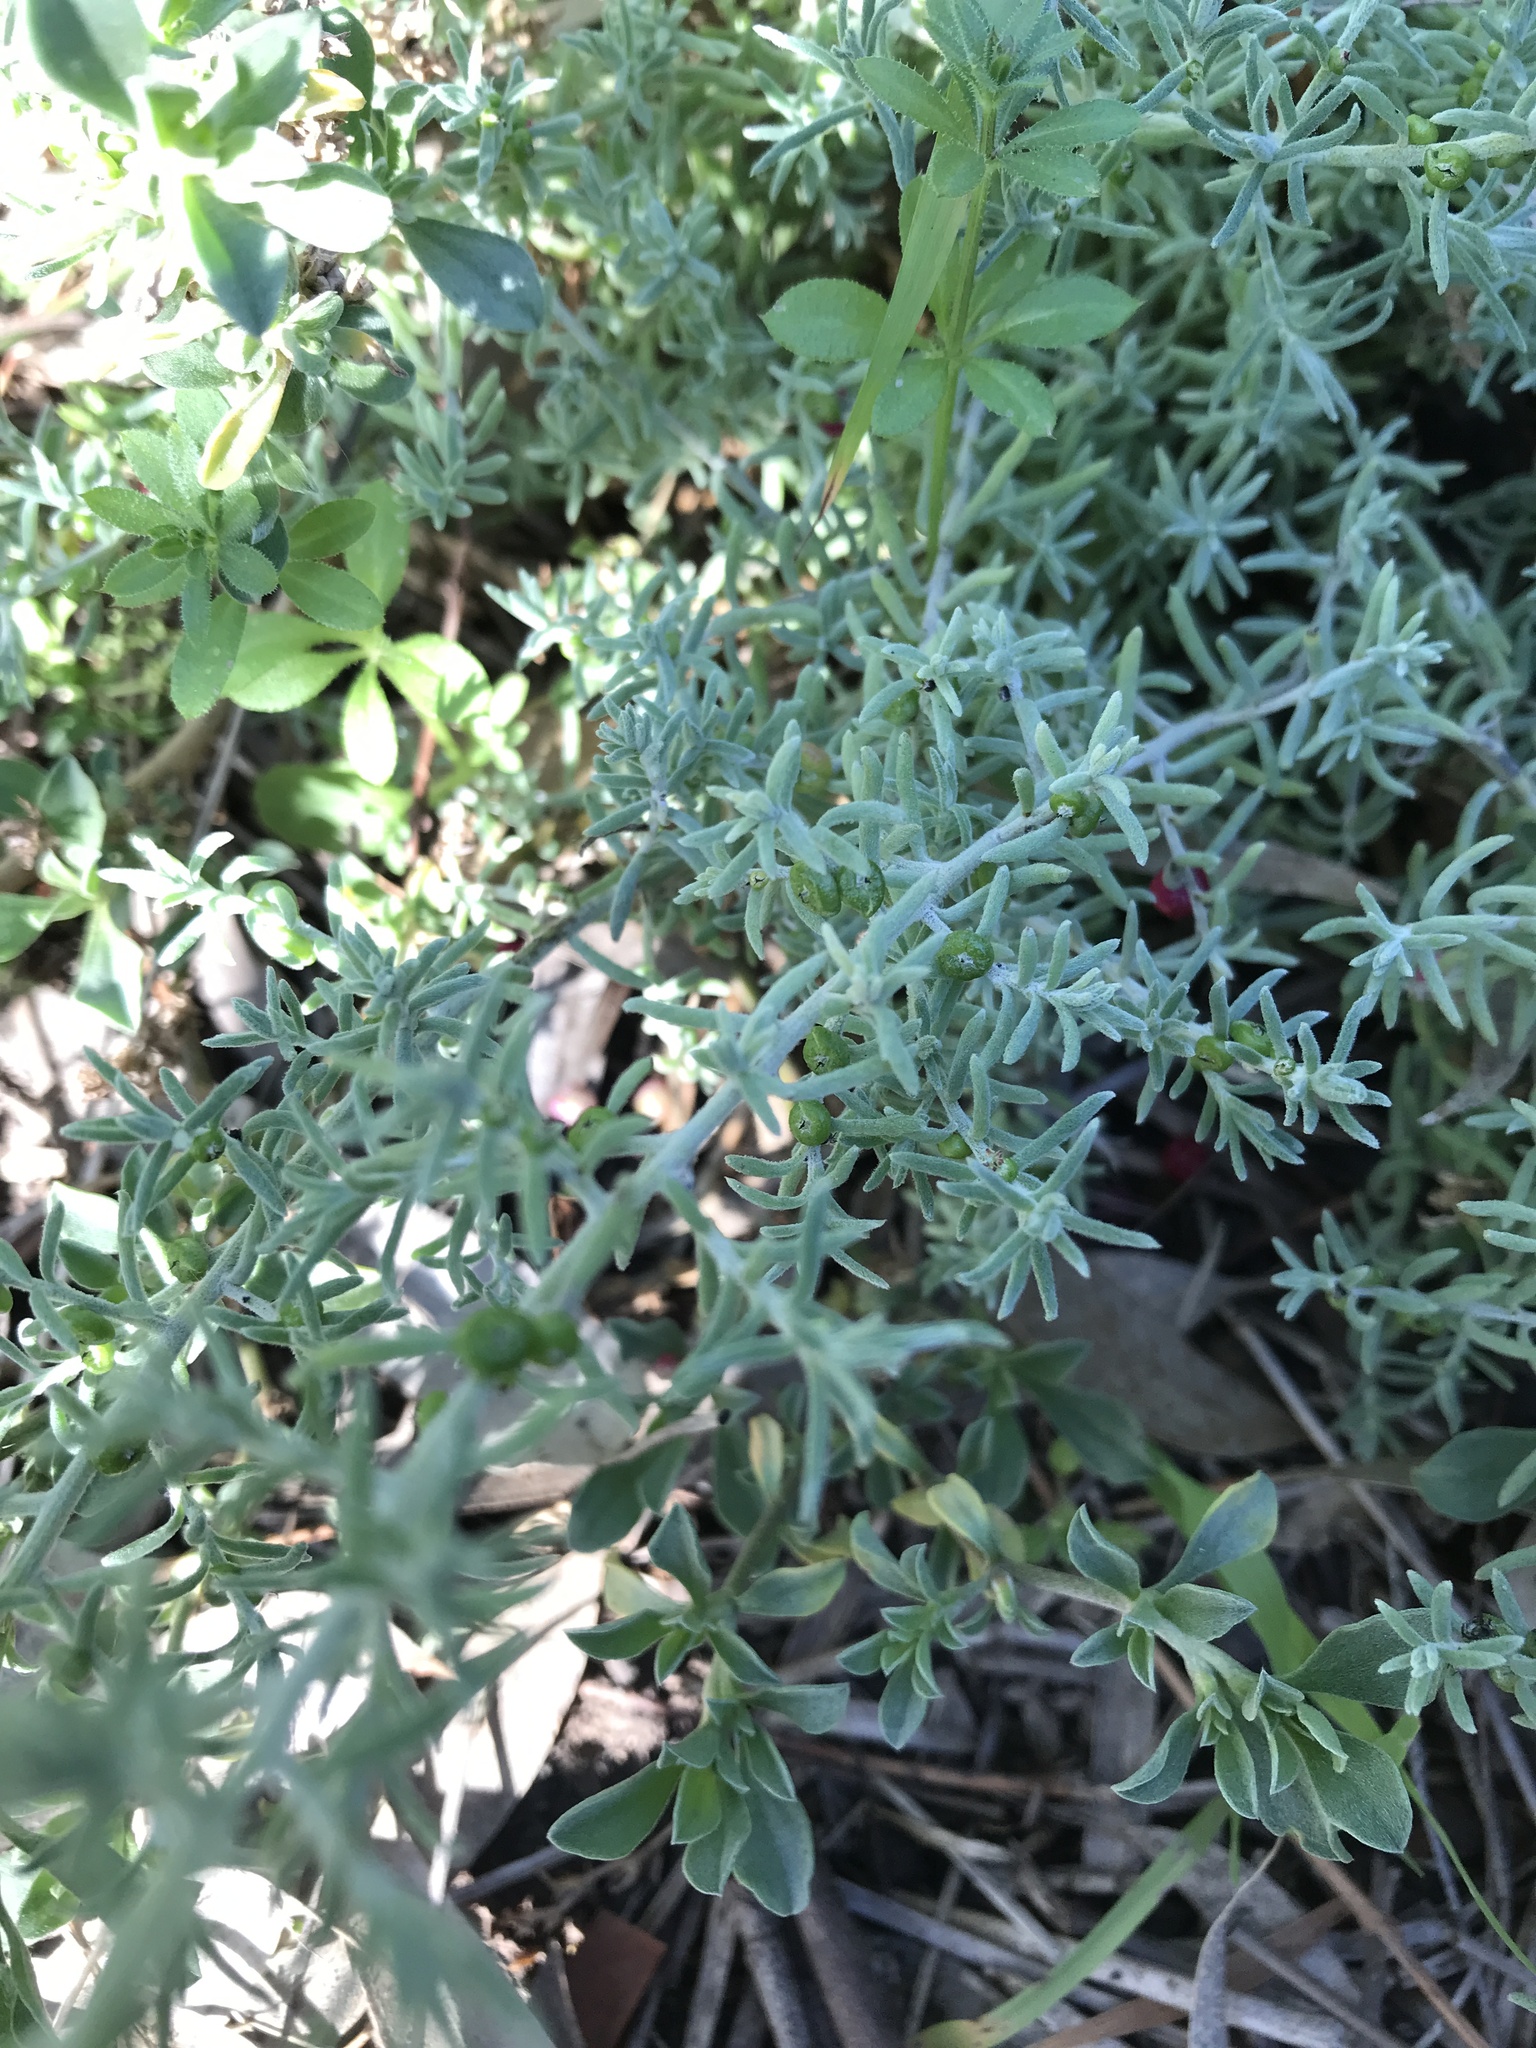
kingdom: Plantae
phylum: Tracheophyta
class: Magnoliopsida
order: Caryophyllales
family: Amaranthaceae
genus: Enchylaena
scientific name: Enchylaena tomentosa
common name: Ruby saltbush
